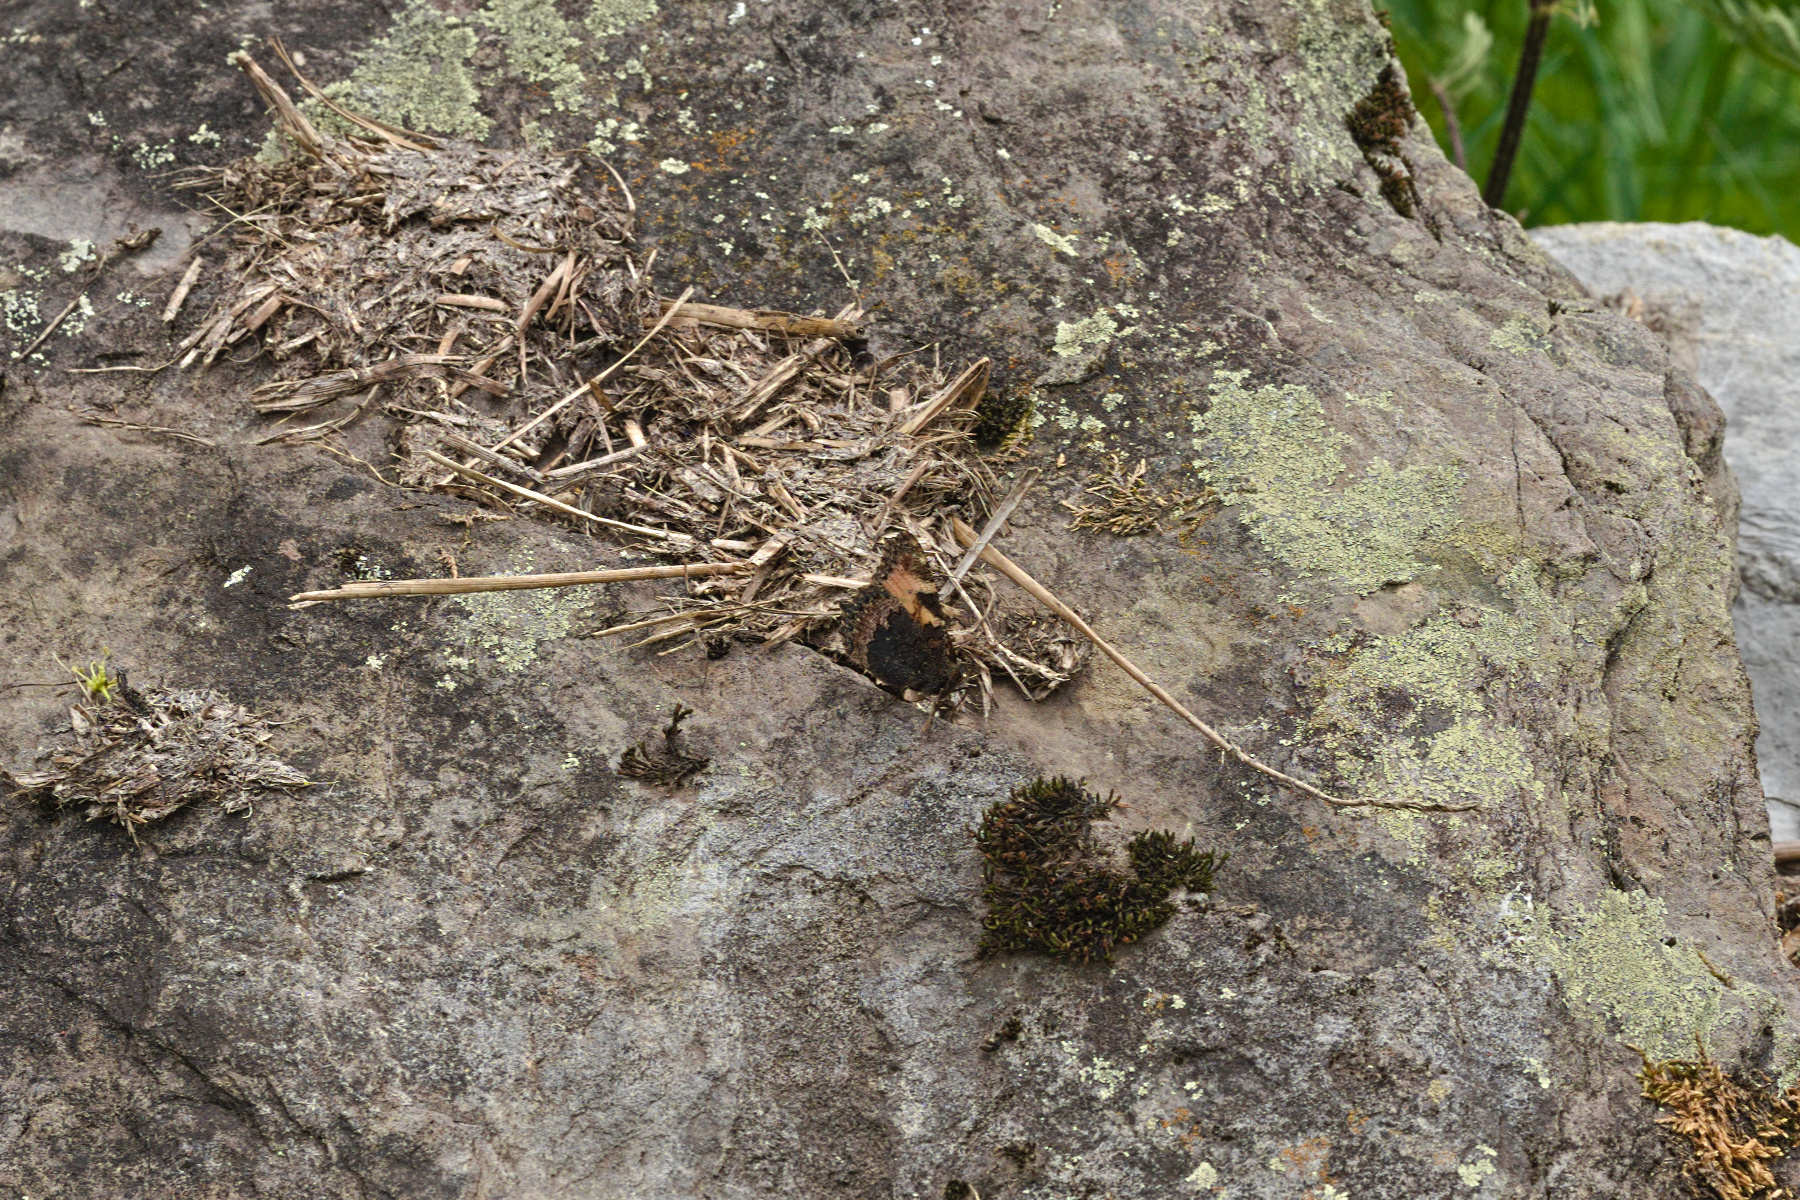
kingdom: Animalia
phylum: Arthropoda
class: Insecta
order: Lepidoptera
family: Nymphalidae
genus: Aglais
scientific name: Aglais urticae
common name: Small tortoiseshell
